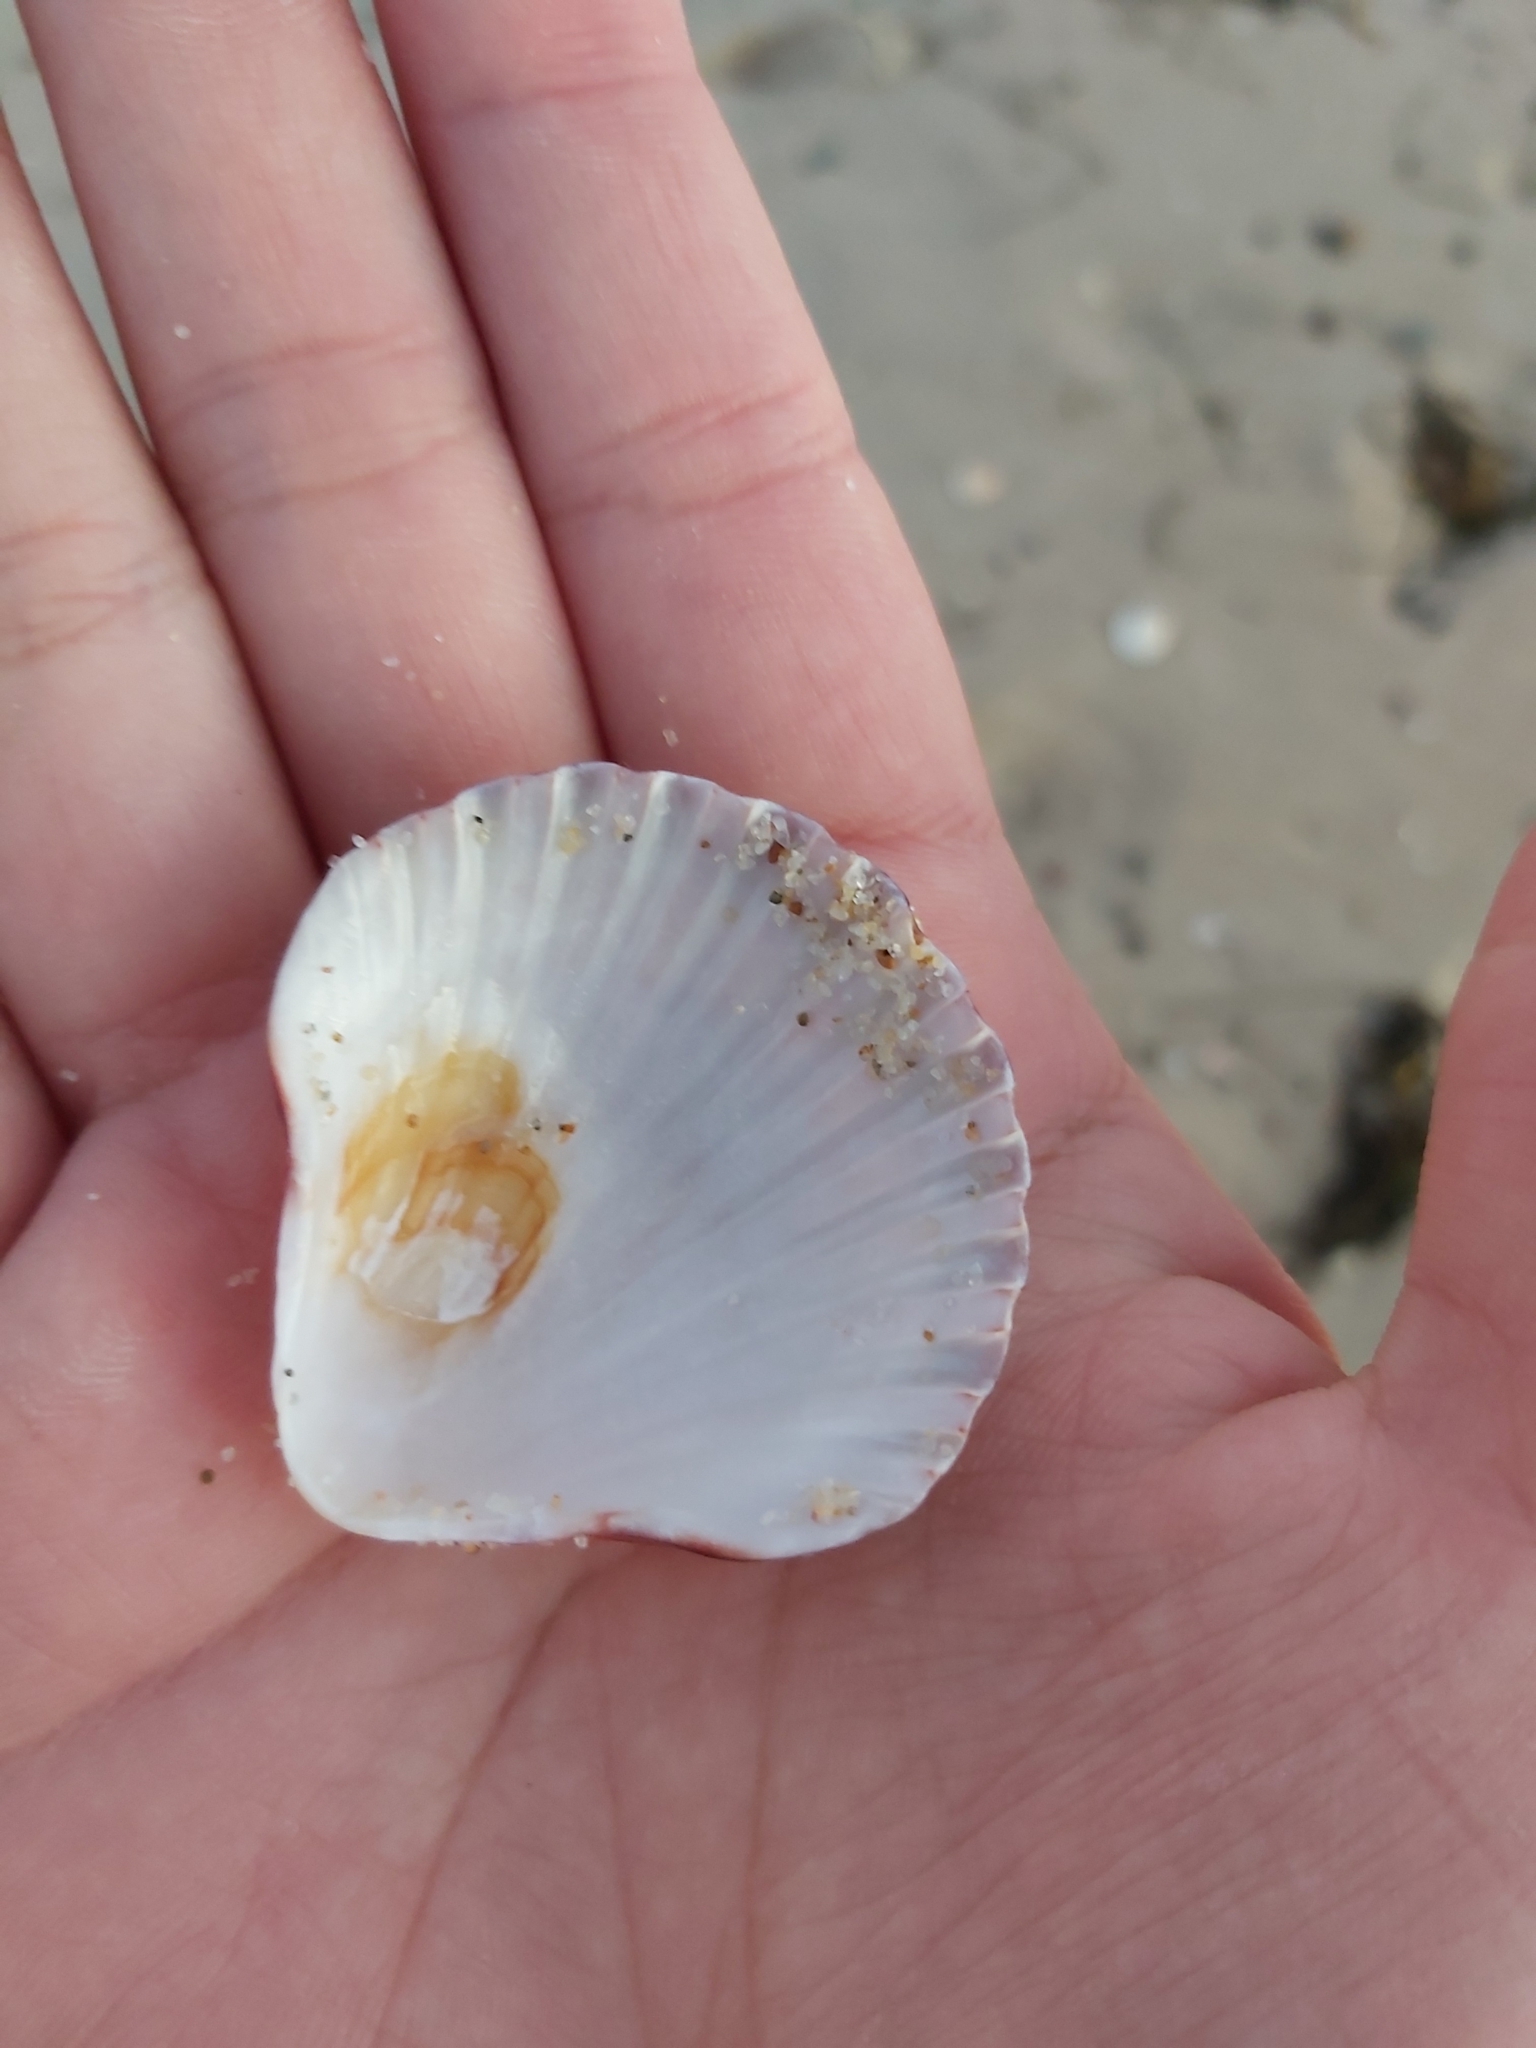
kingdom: Animalia
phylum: Mollusca
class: Bivalvia
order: Pectinida
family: Pectinidae
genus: Pecten
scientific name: Pecten fumatus
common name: Australian scallop
